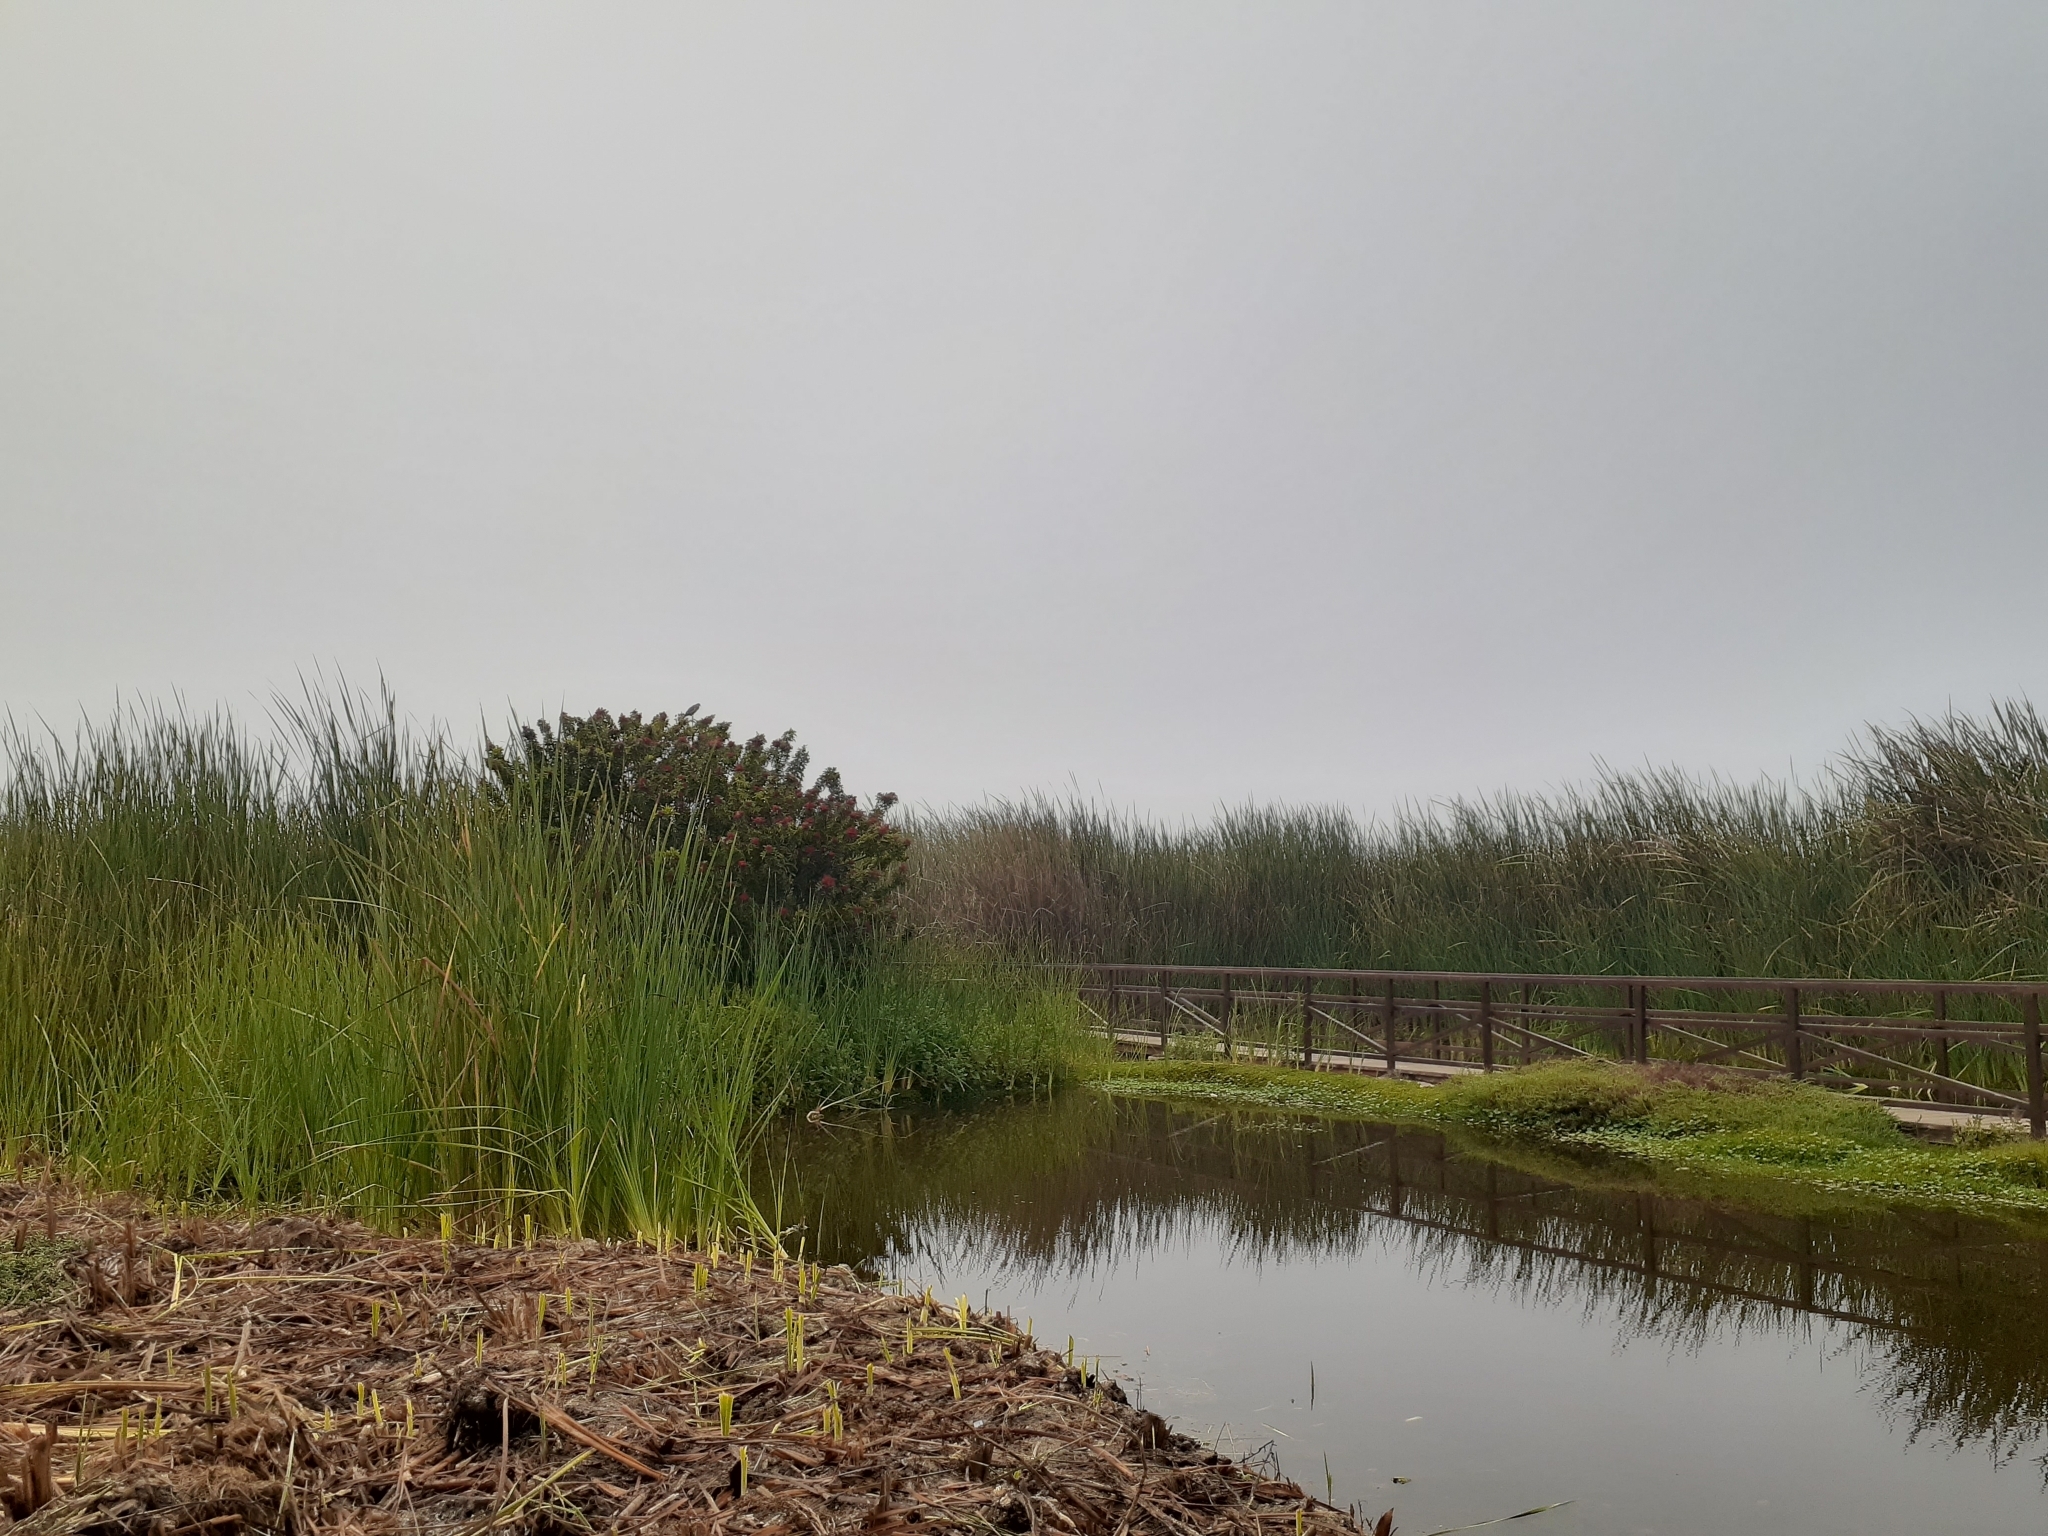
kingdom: Plantae
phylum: Tracheophyta
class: Liliopsida
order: Poales
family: Typhaceae
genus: Typha
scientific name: Typha domingensis
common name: Southern cattail
